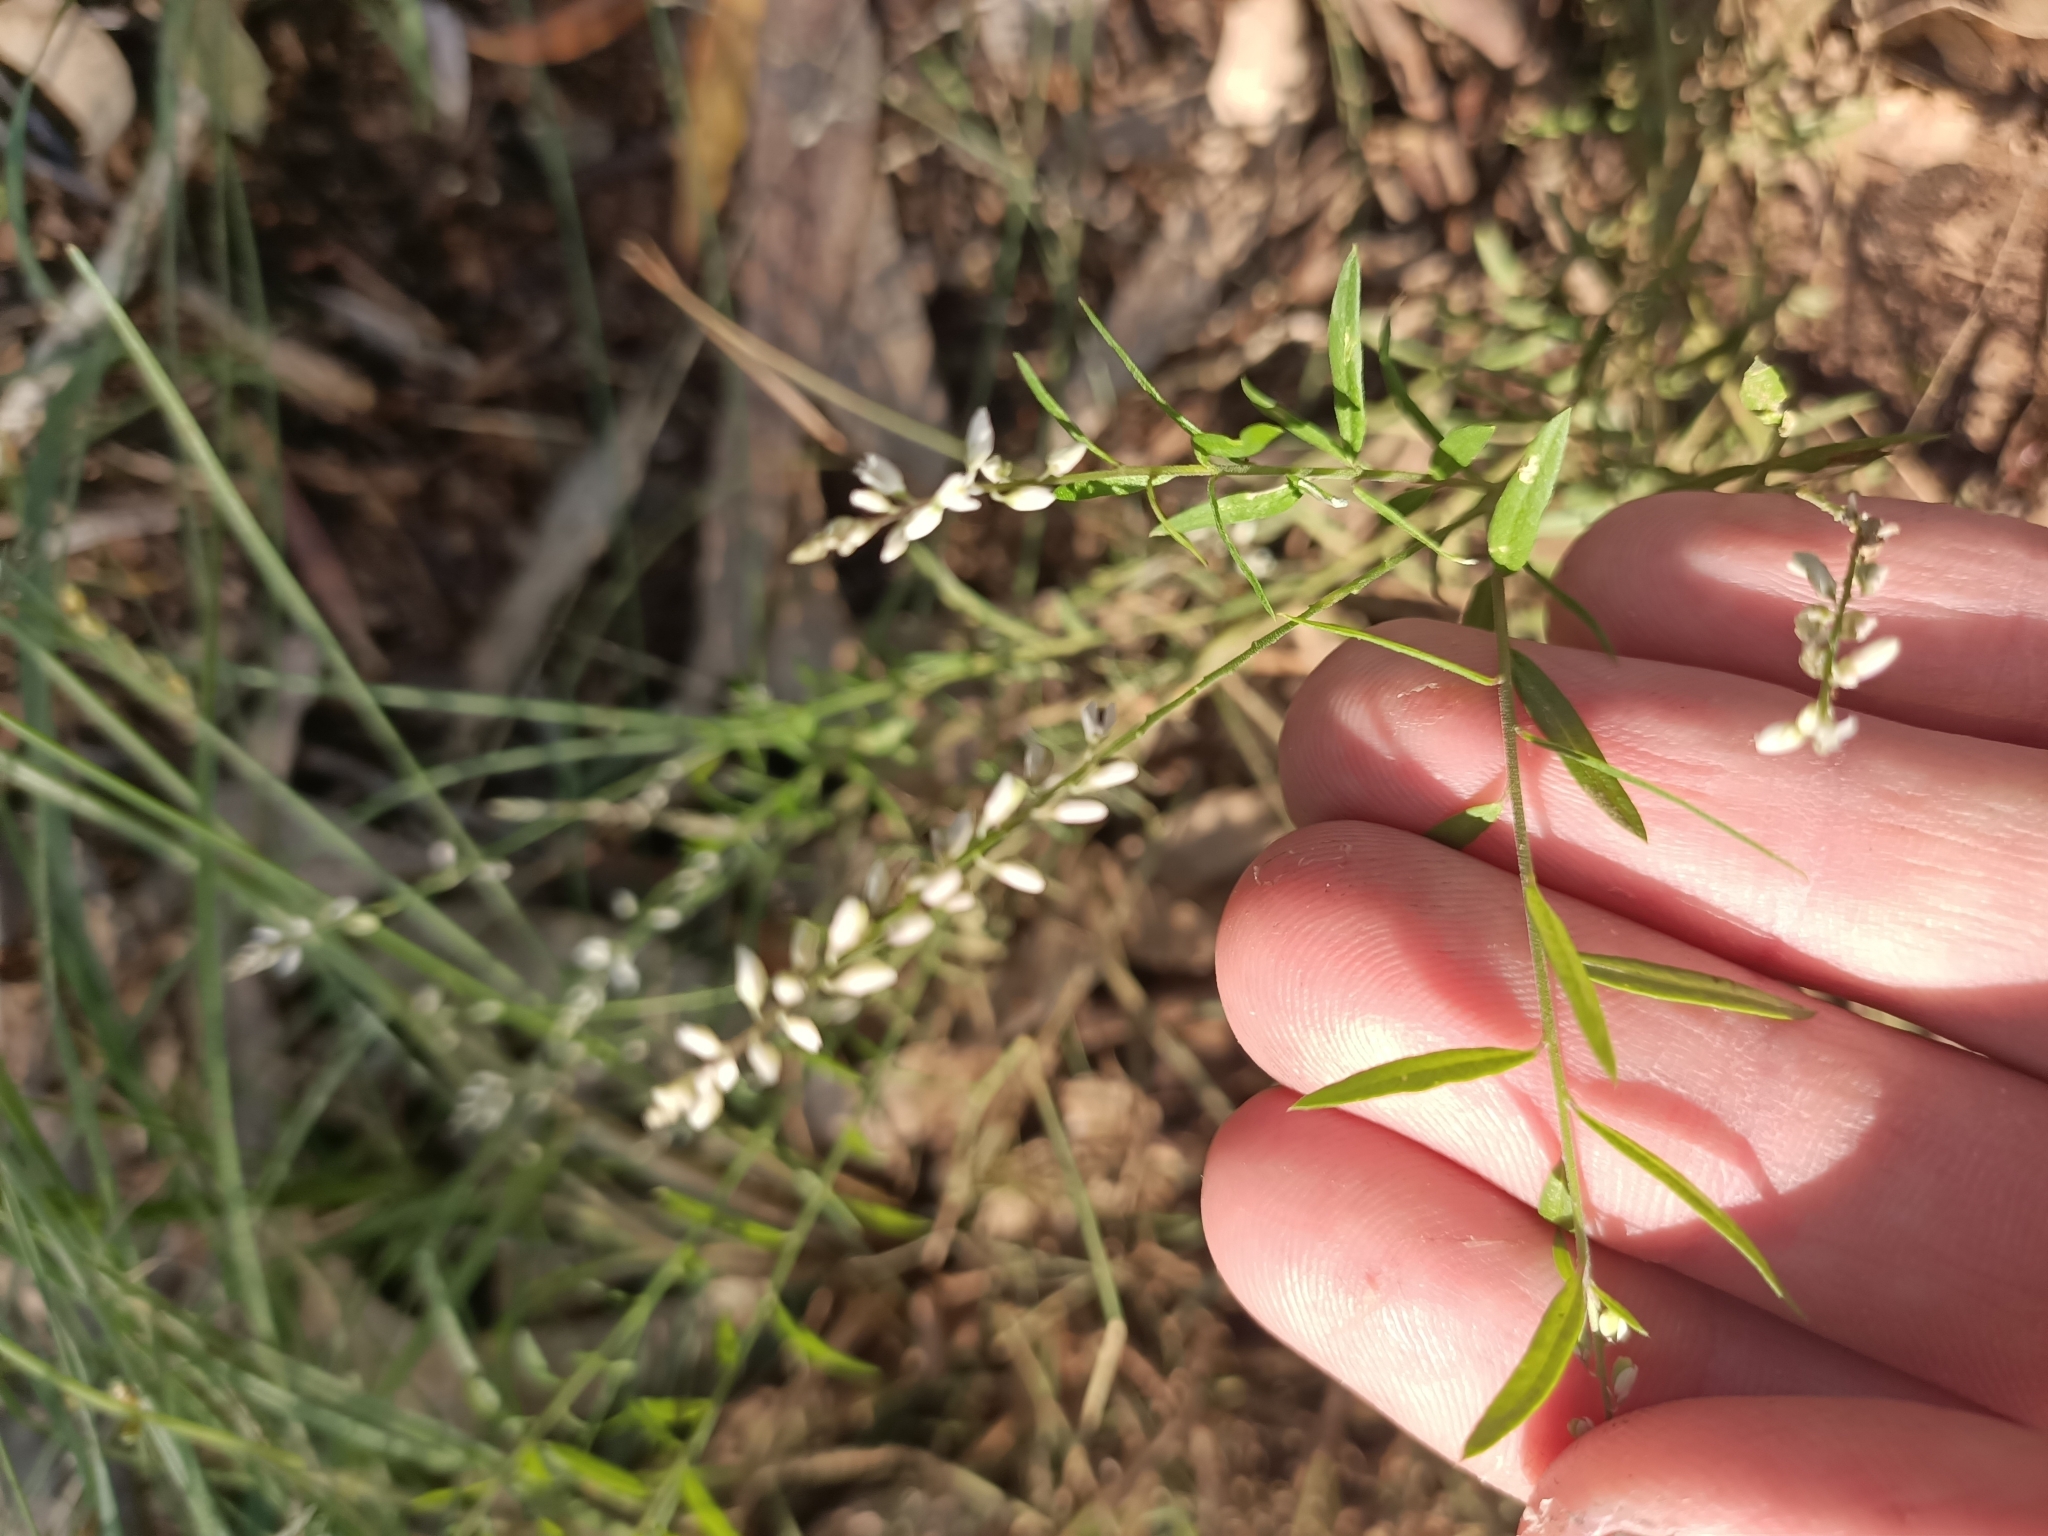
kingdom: Plantae
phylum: Tracheophyta
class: Magnoliopsida
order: Fabales
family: Polygalaceae
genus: Polygala
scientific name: Polygala paniculata
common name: Orosne
